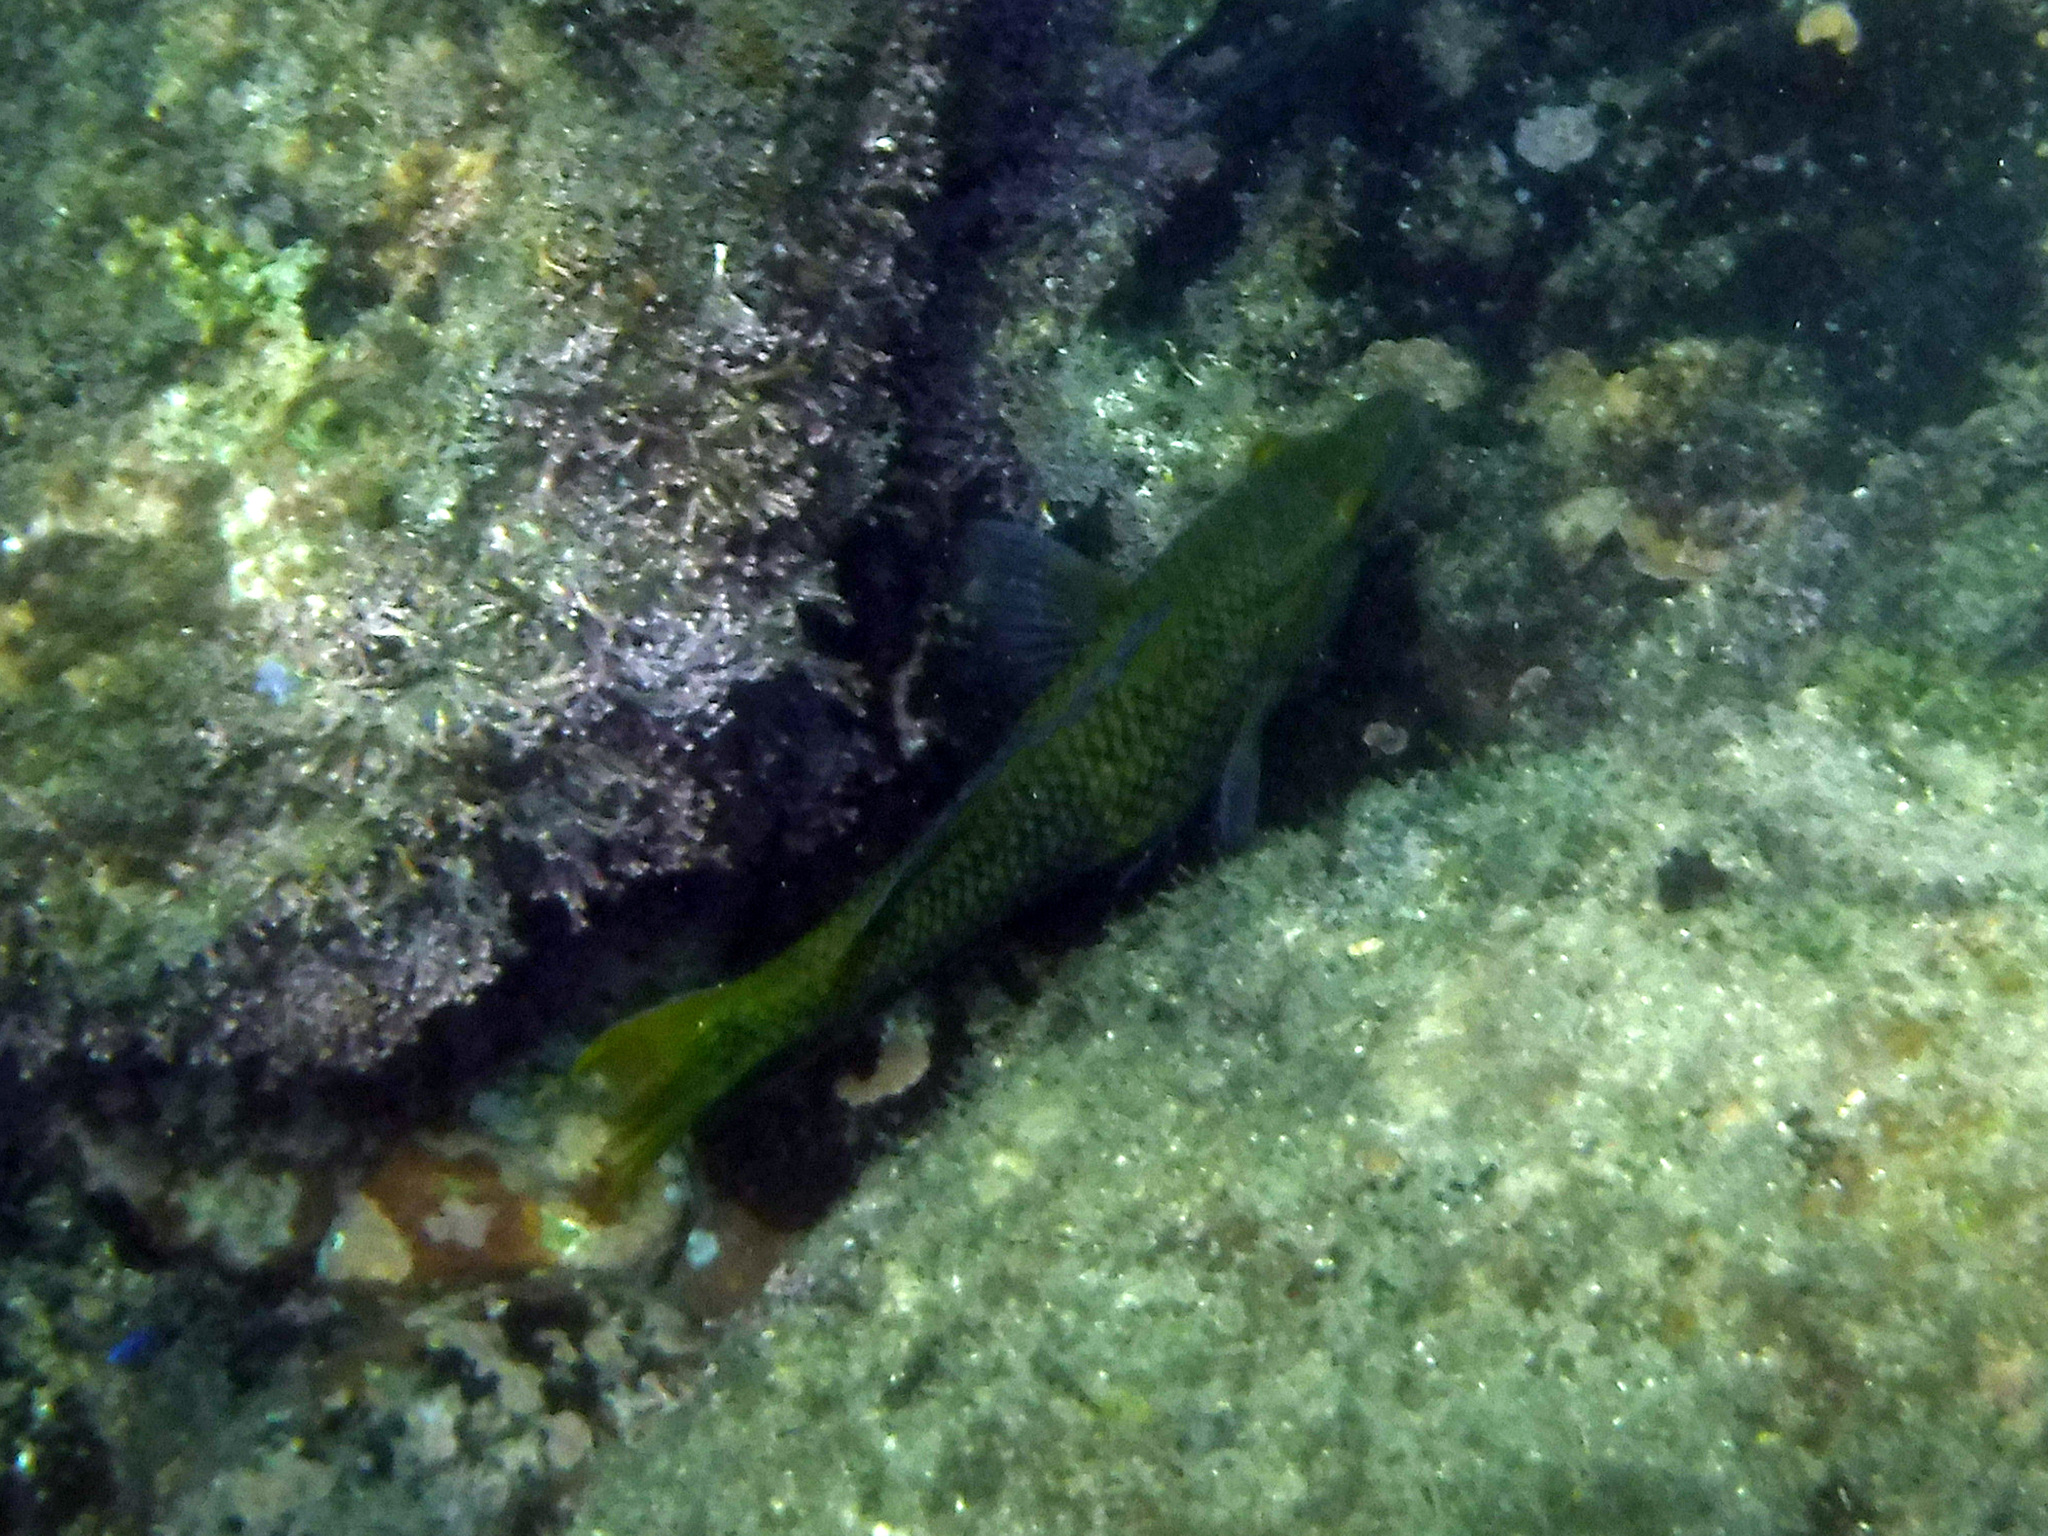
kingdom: Animalia
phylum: Chordata
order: Perciformes
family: Labridae
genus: Bodianus
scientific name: Bodianus diplotaenia
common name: Mexican hogfish
